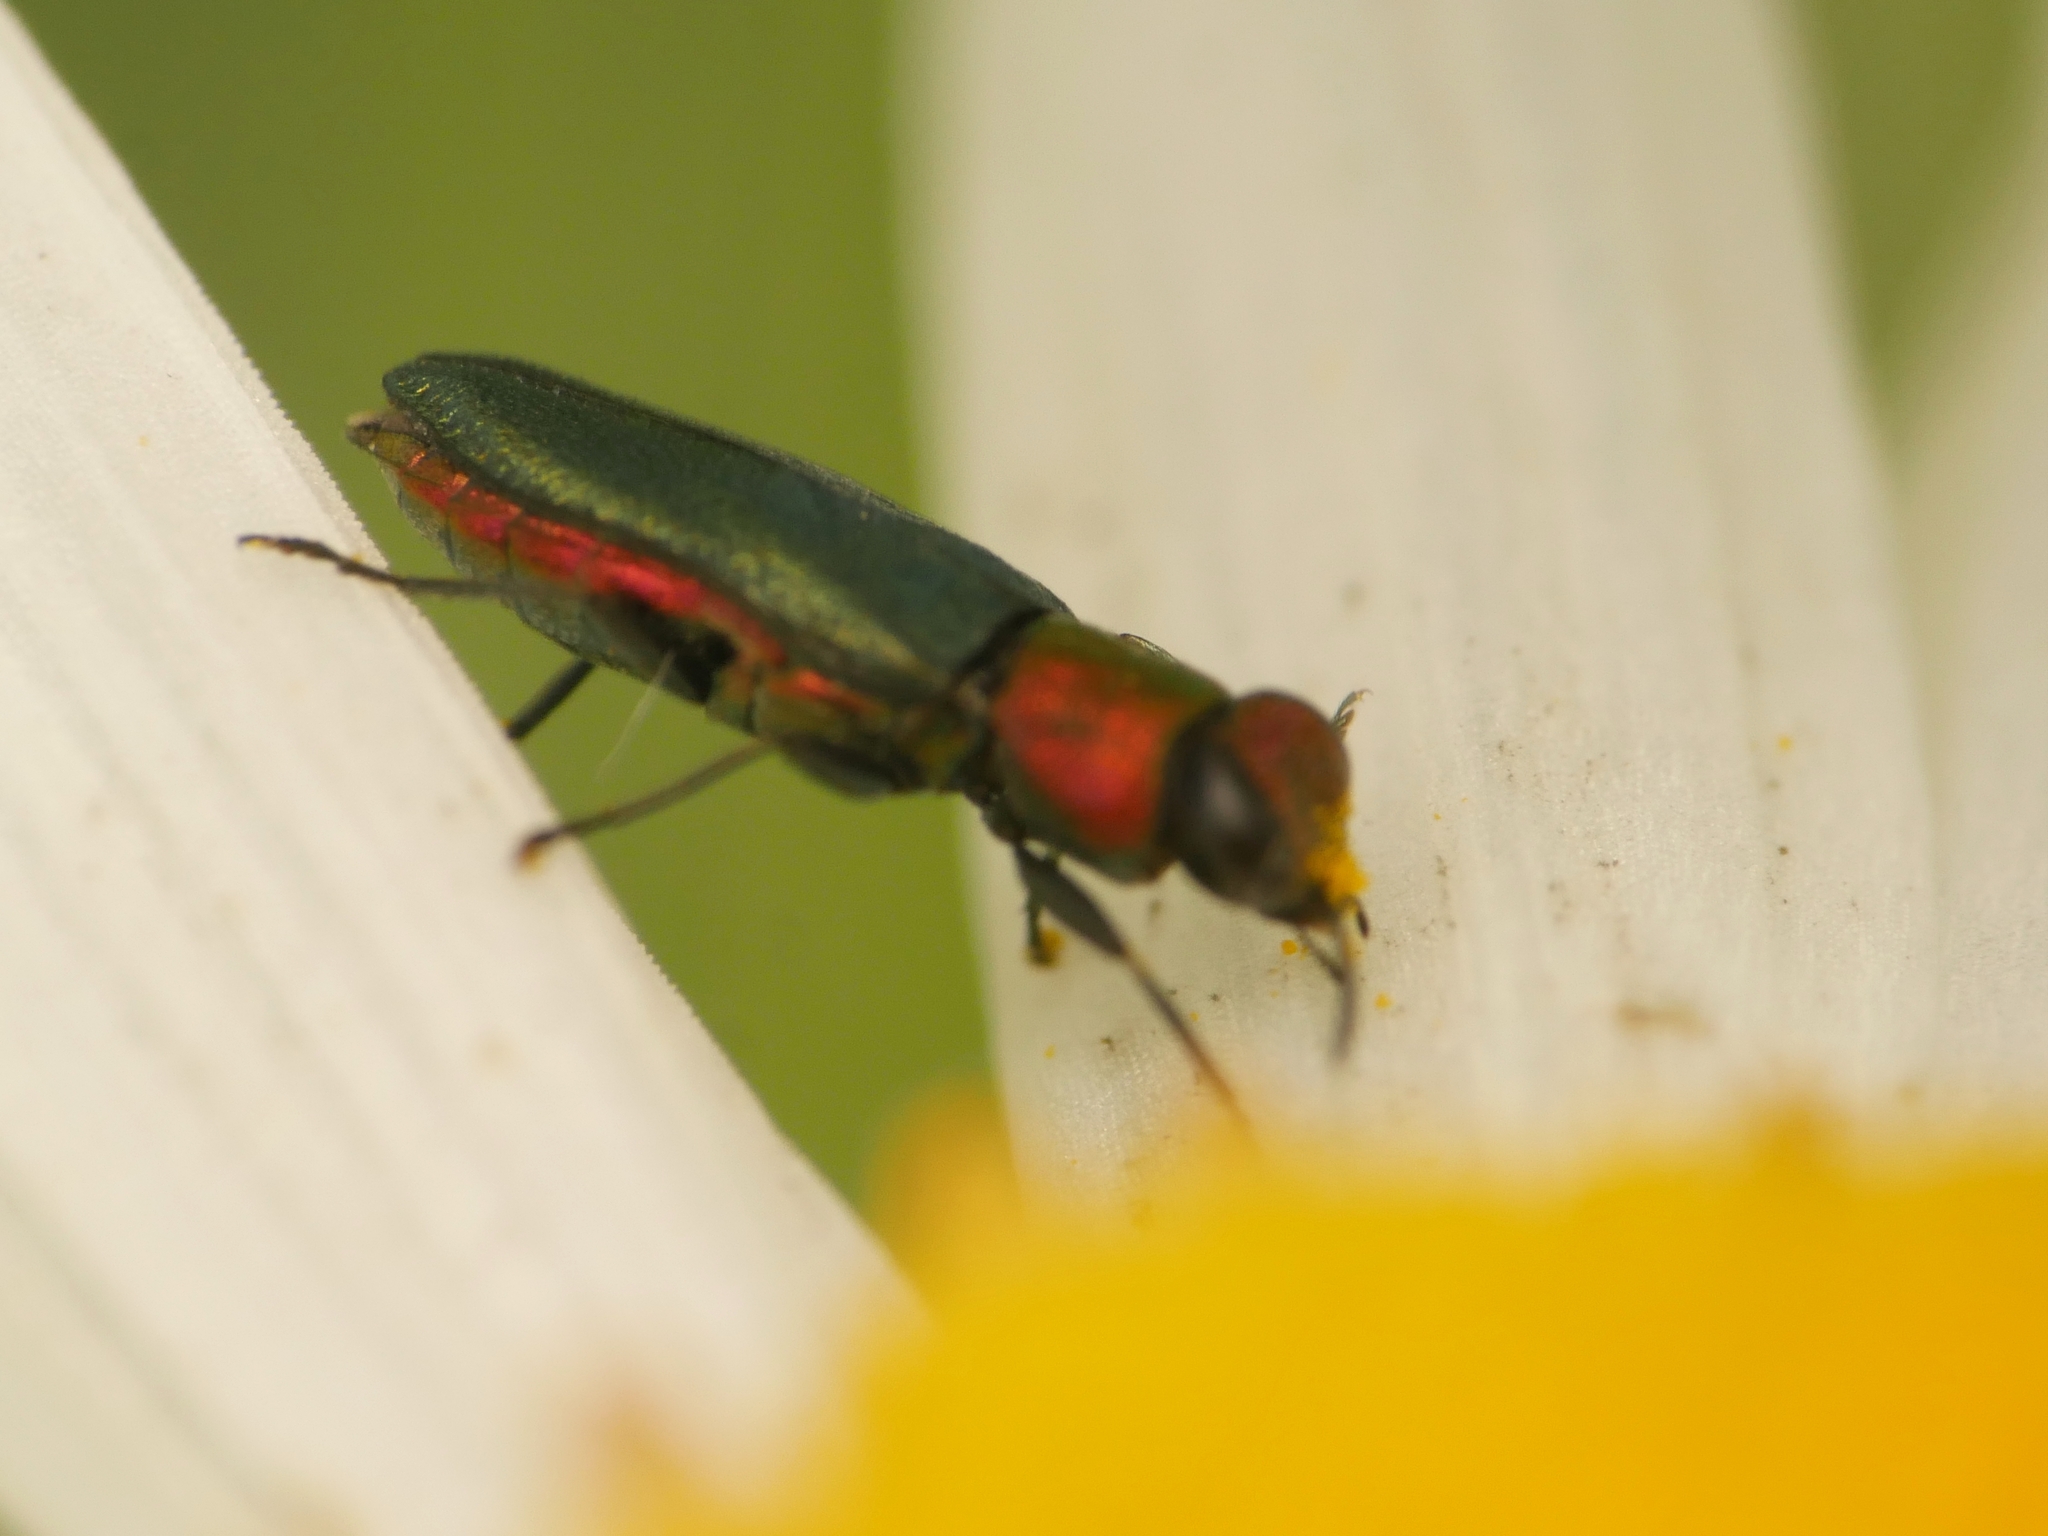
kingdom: Animalia
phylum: Arthropoda
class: Insecta
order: Coleoptera
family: Buprestidae
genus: Anthaxia
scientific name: Anthaxia nitidula
